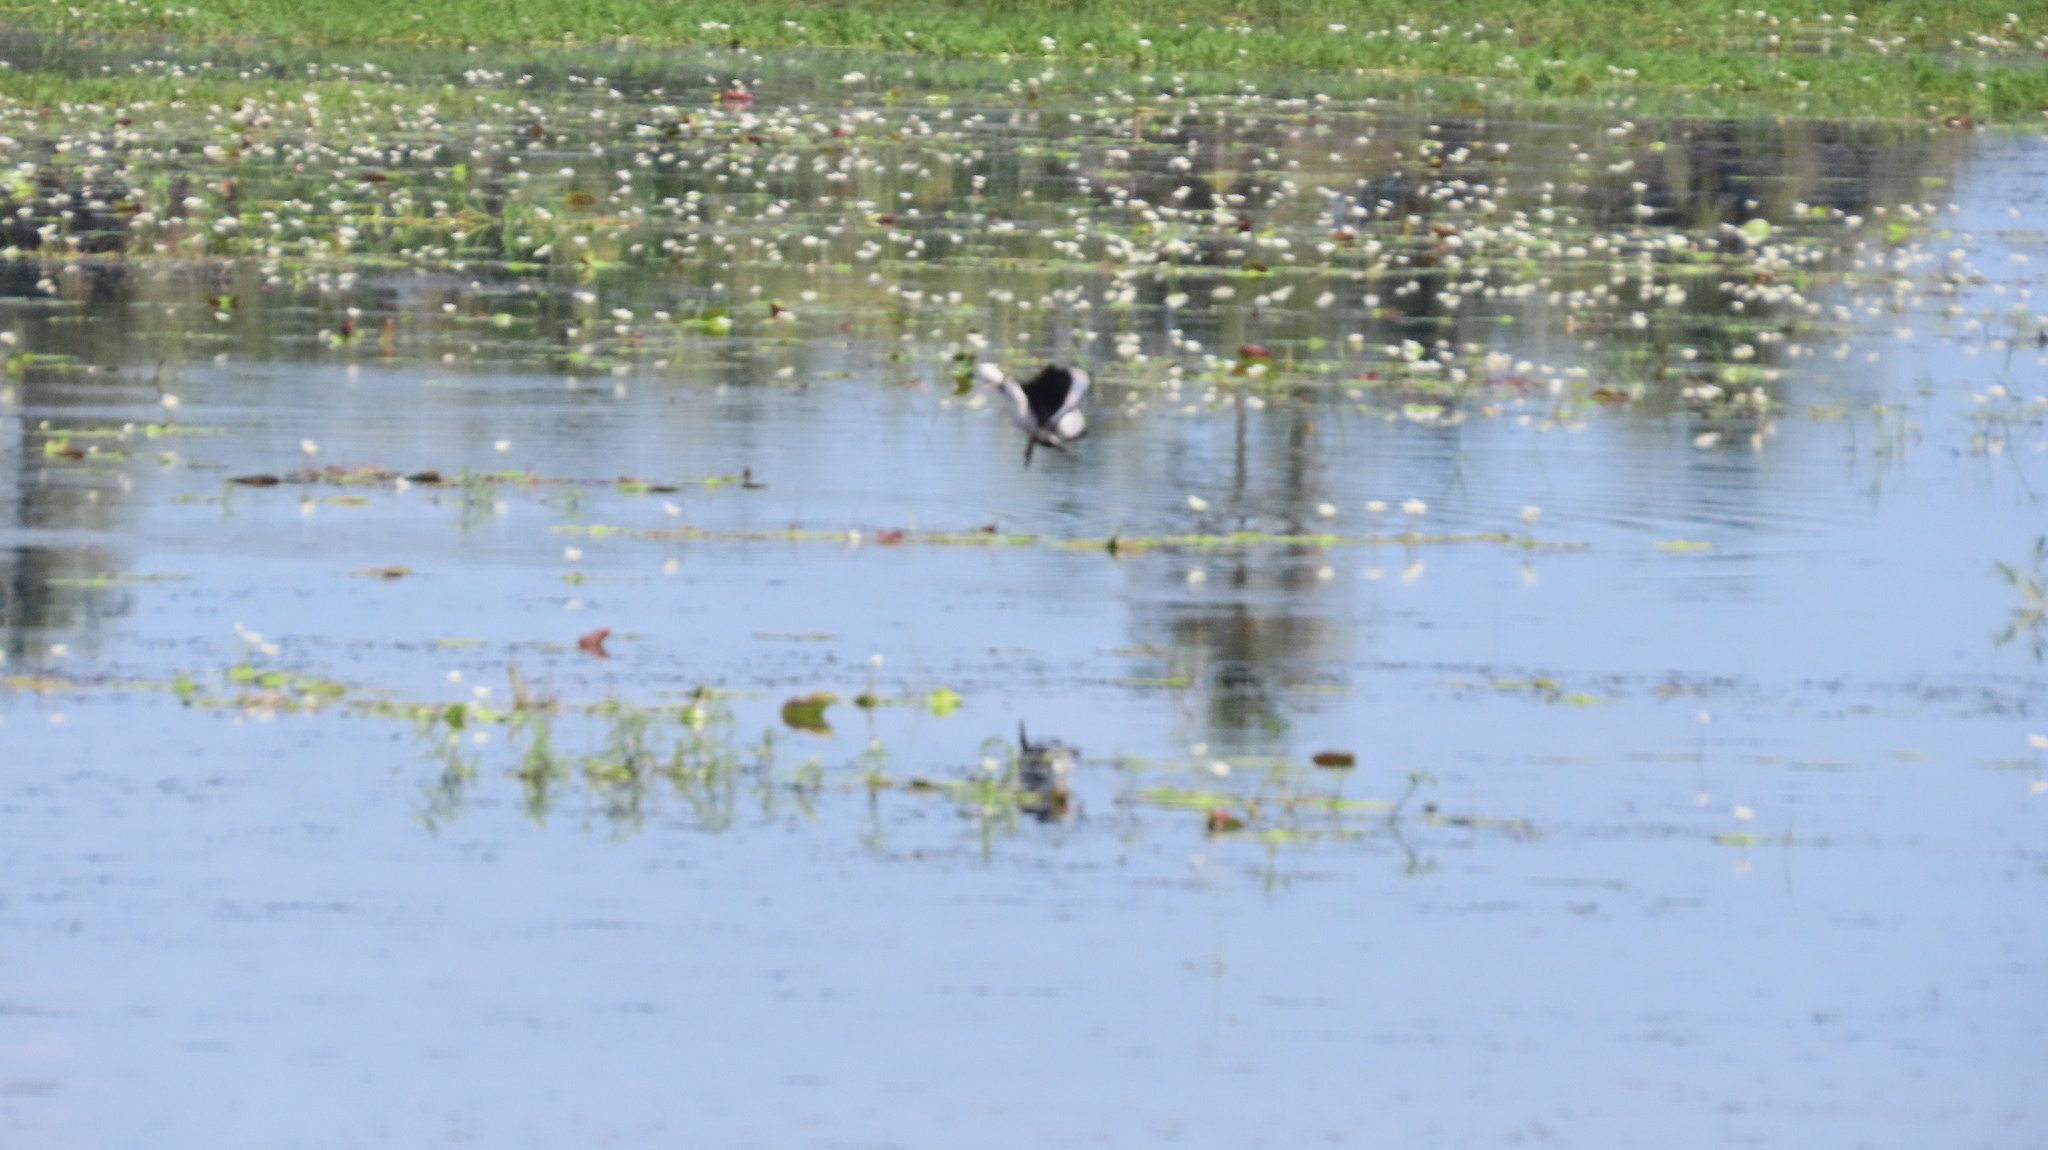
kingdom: Animalia
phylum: Chordata
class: Aves
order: Anseriformes
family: Anatidae
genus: Nettapus
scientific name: Nettapus coromandelianus
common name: Cotton pygmy-goose
